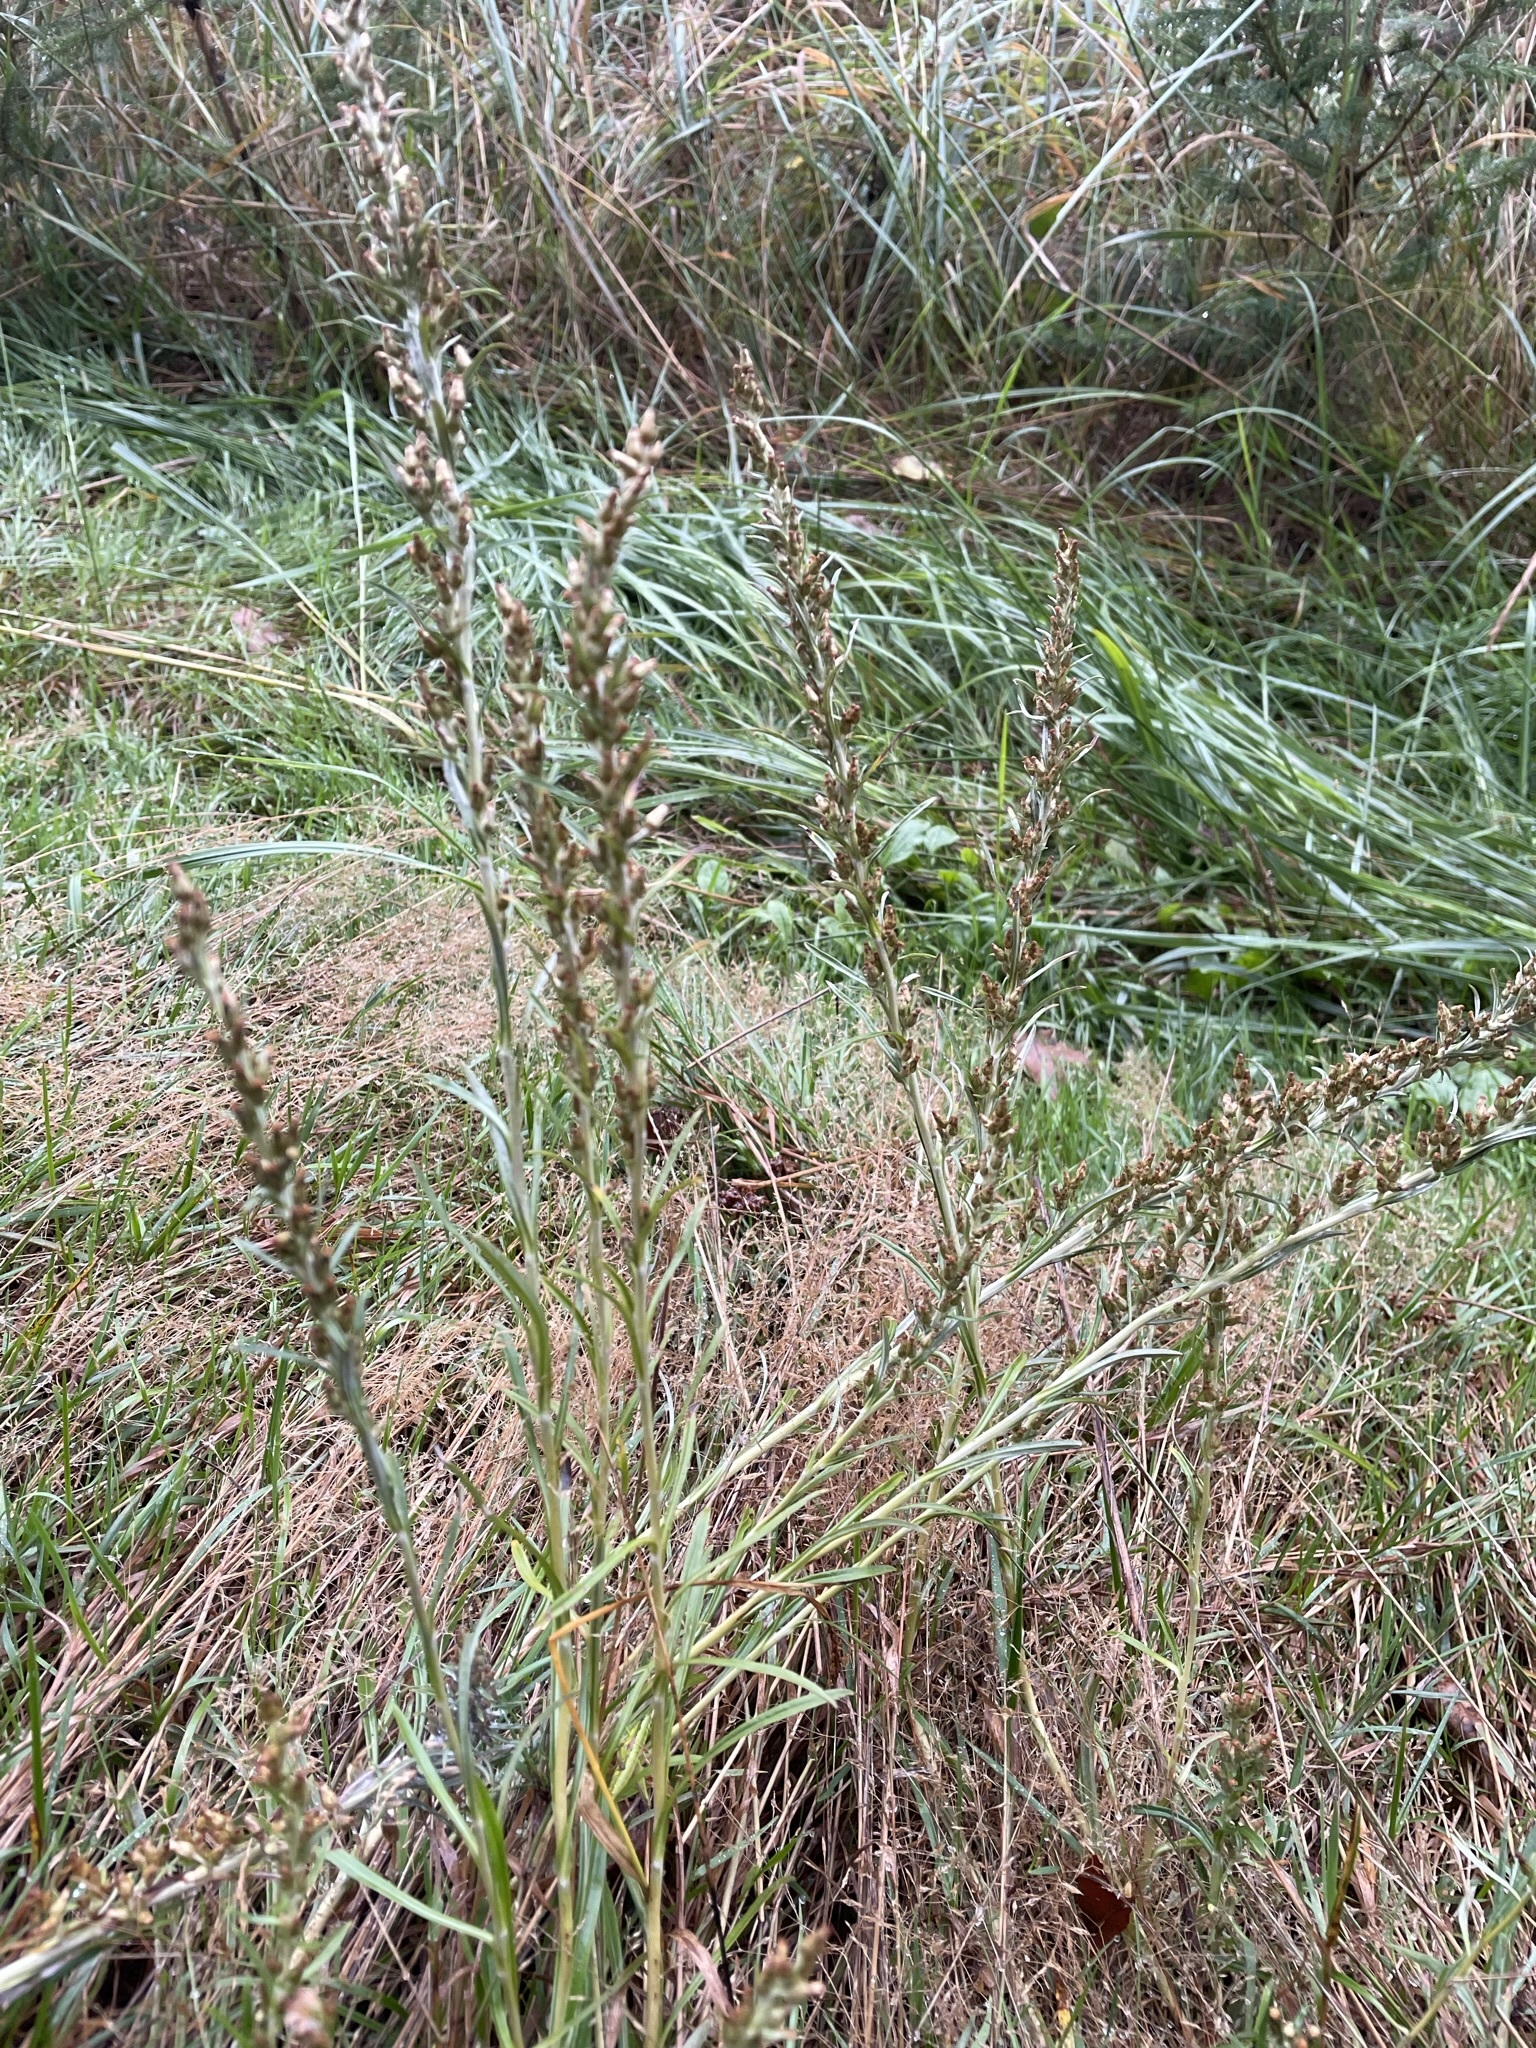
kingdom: Plantae
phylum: Tracheophyta
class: Magnoliopsida
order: Asterales
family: Asteraceae
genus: Omalotheca
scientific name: Omalotheca sylvatica
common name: Heath cudweed
